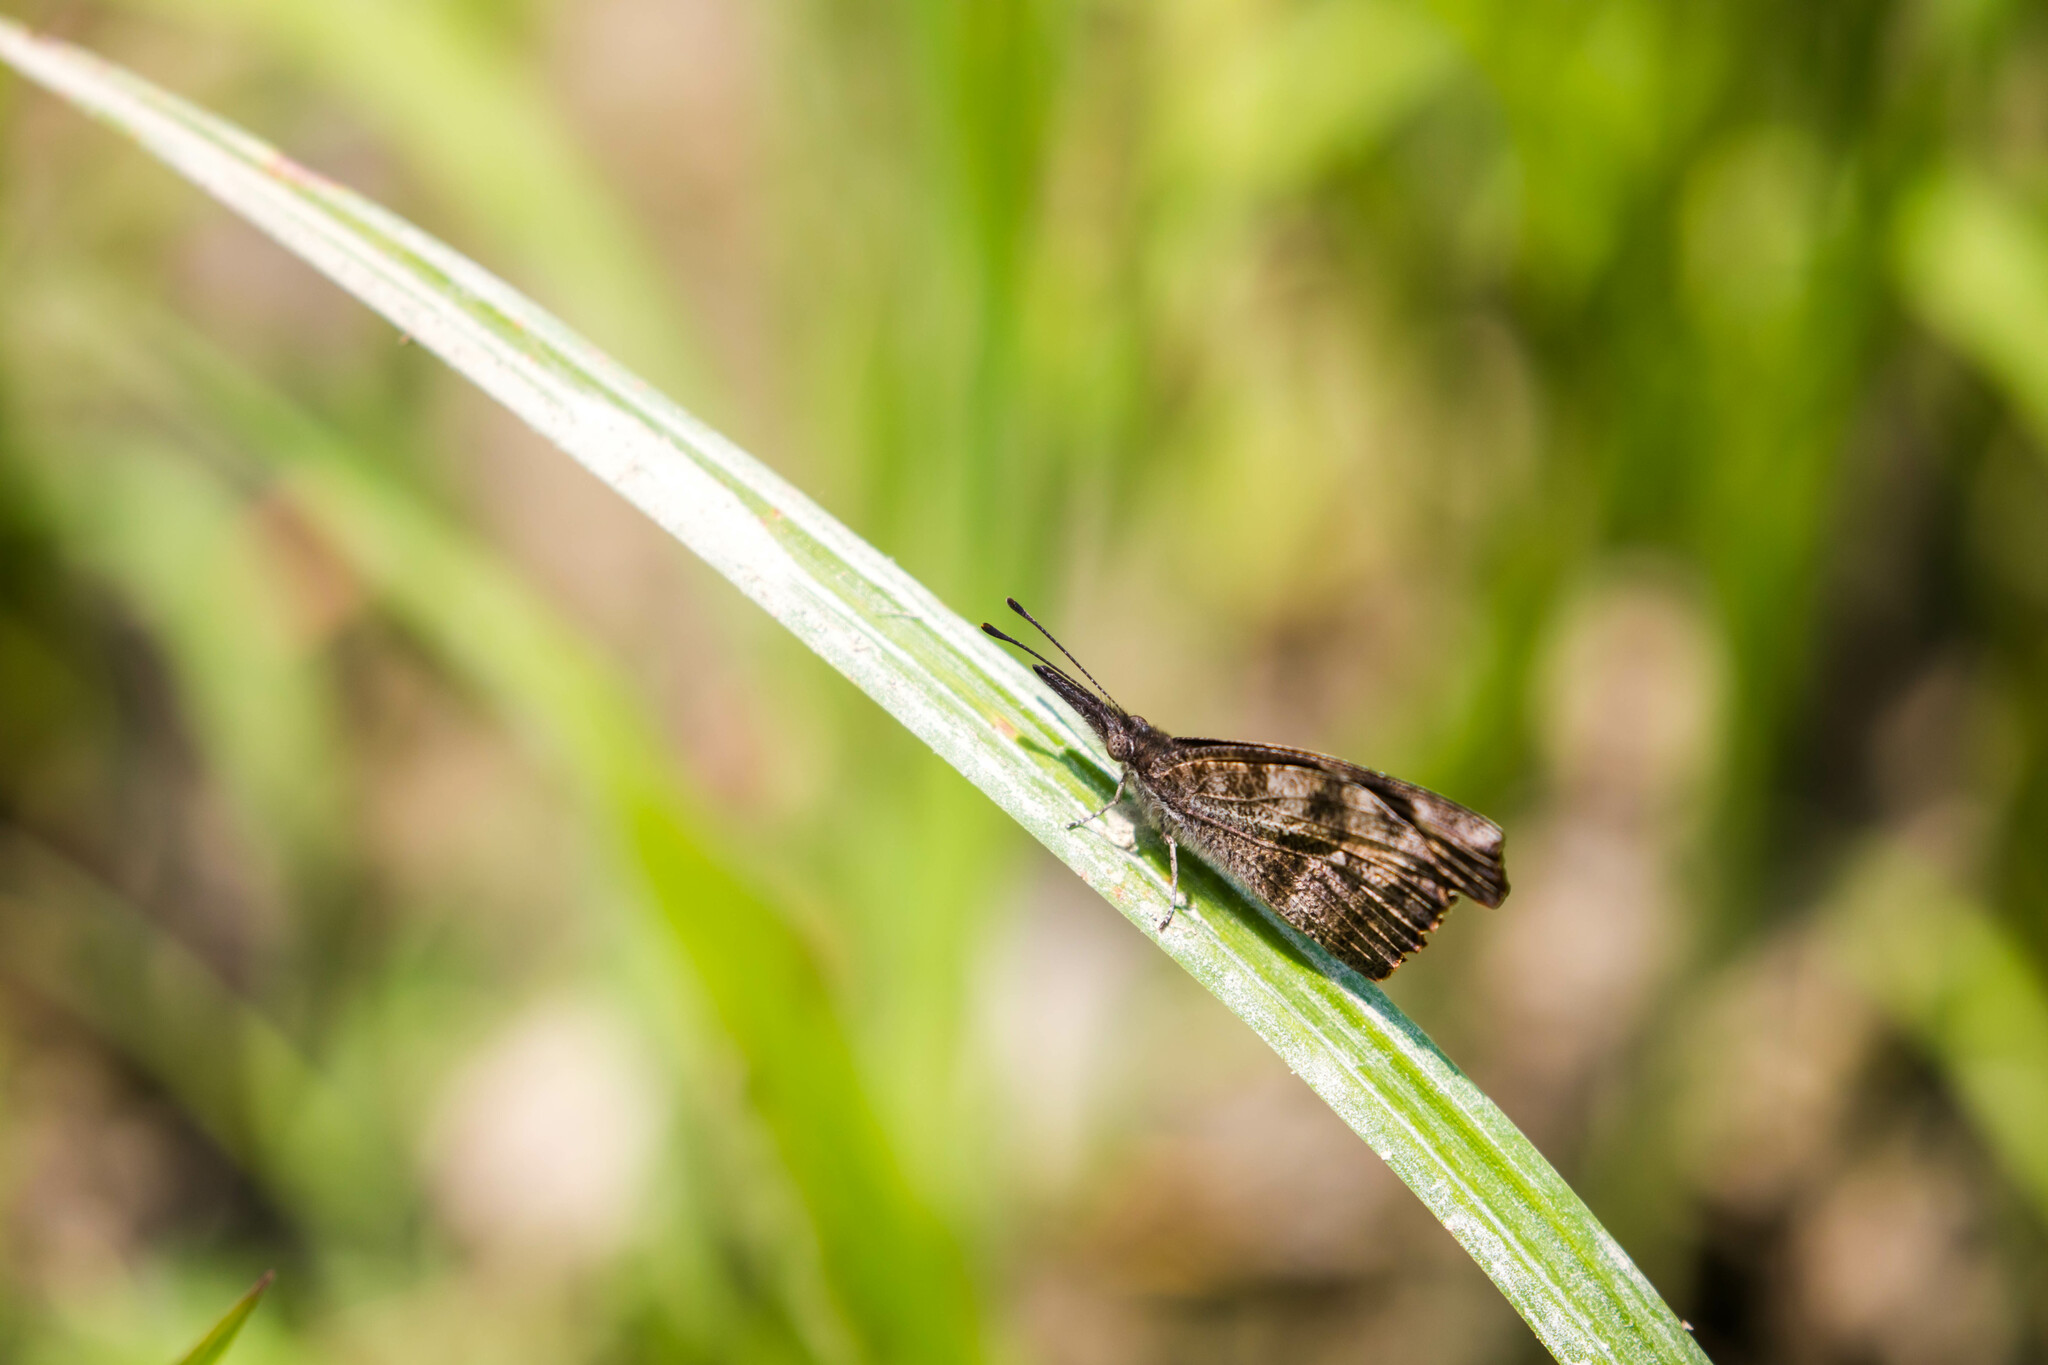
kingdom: Animalia
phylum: Arthropoda
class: Insecta
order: Lepidoptera
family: Nymphalidae
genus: Libytheana
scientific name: Libytheana carinenta
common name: American snout
